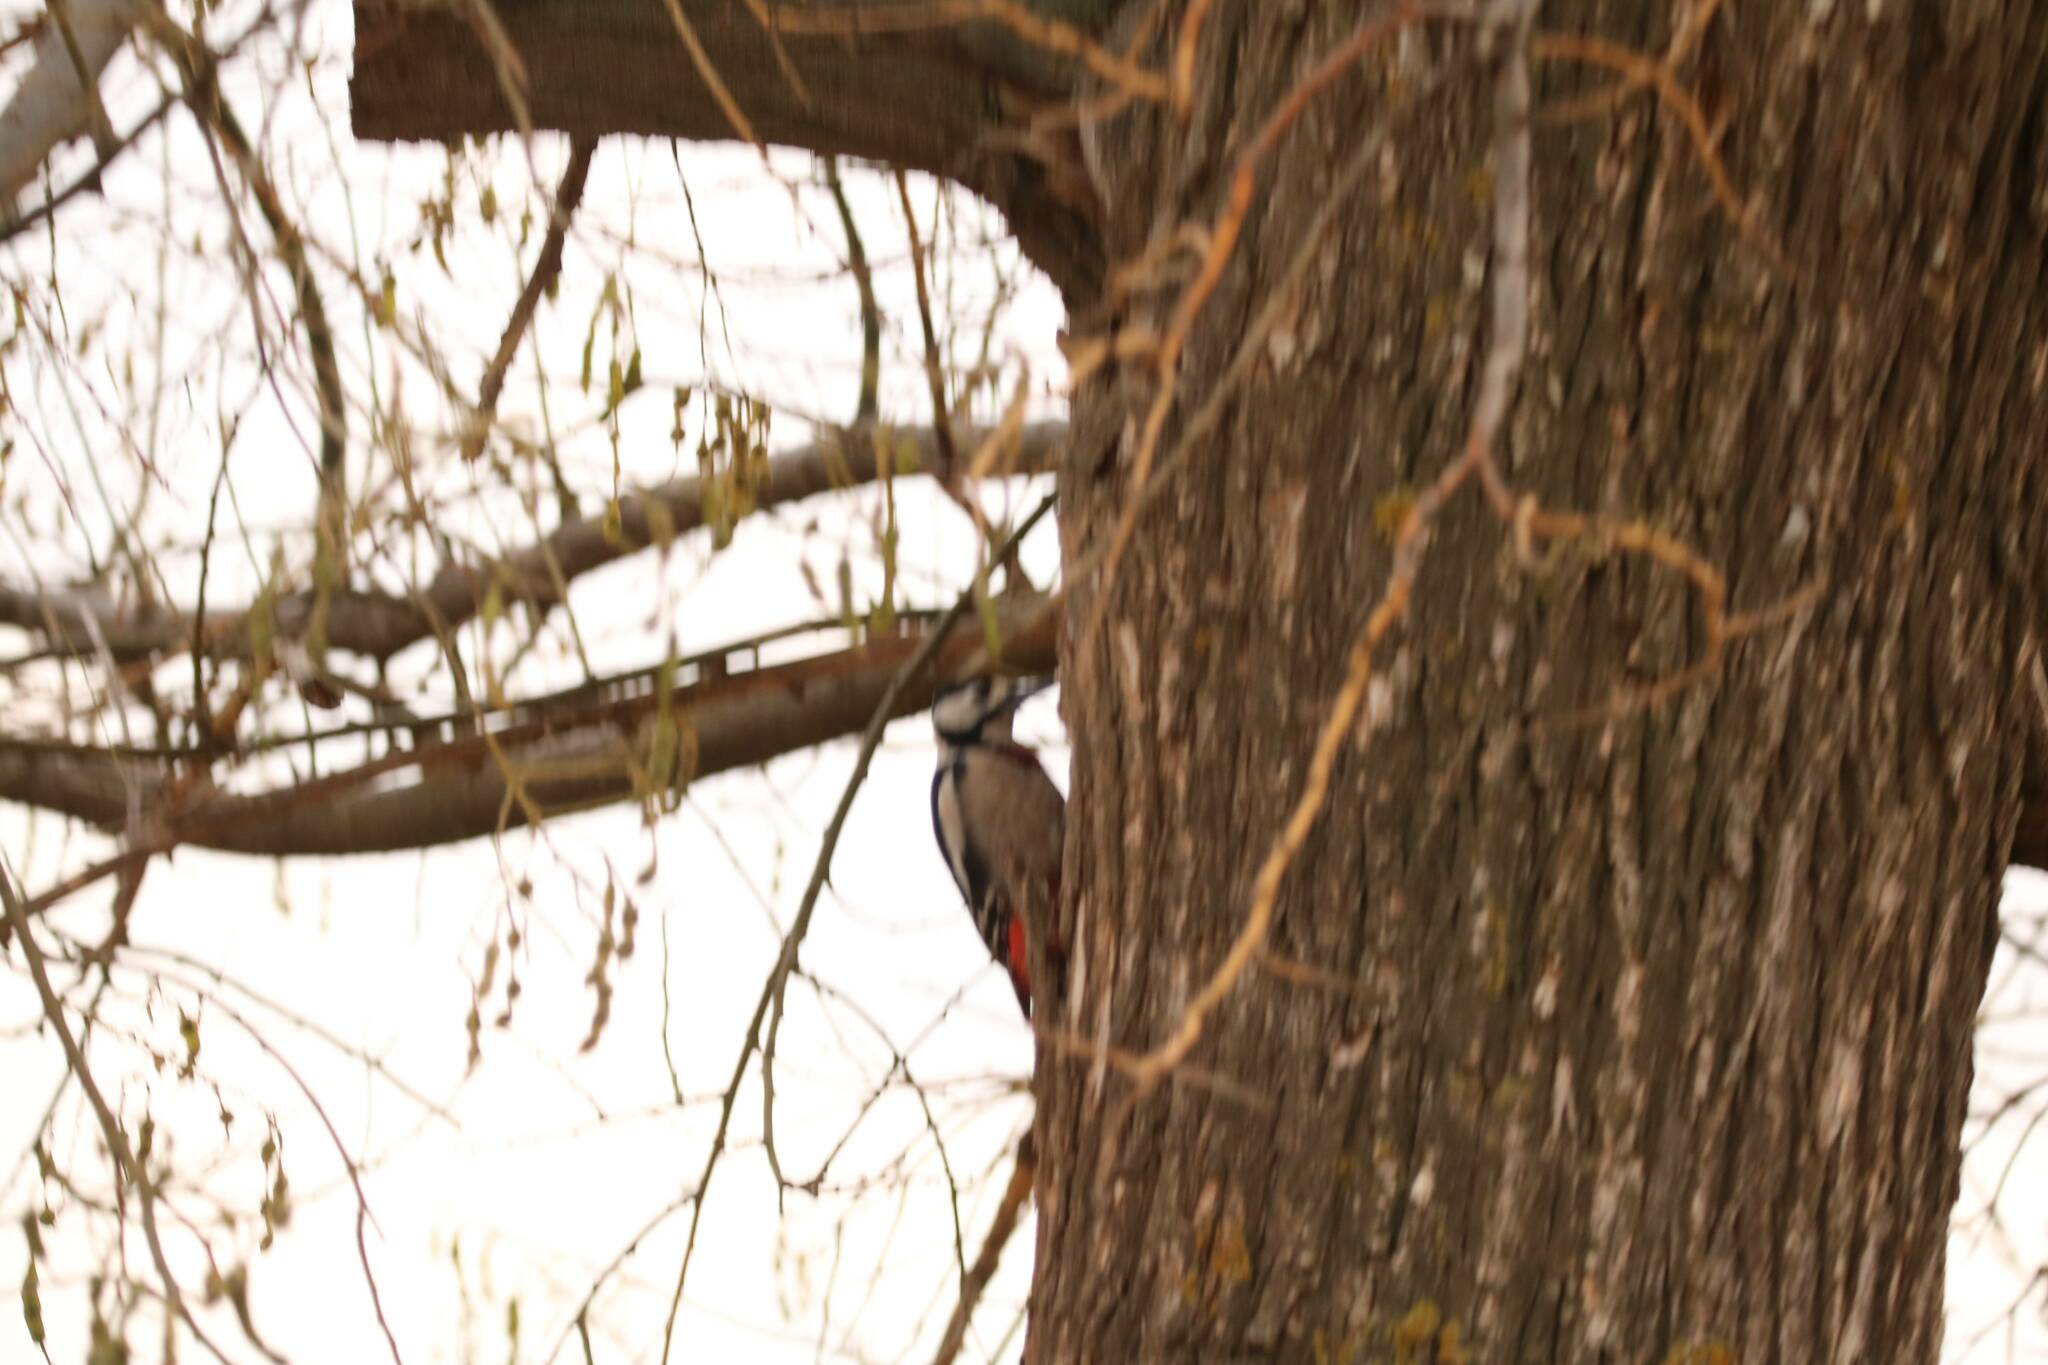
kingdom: Animalia
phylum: Chordata
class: Aves
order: Piciformes
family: Picidae
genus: Dendrocopos
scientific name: Dendrocopos major
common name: Great spotted woodpecker
